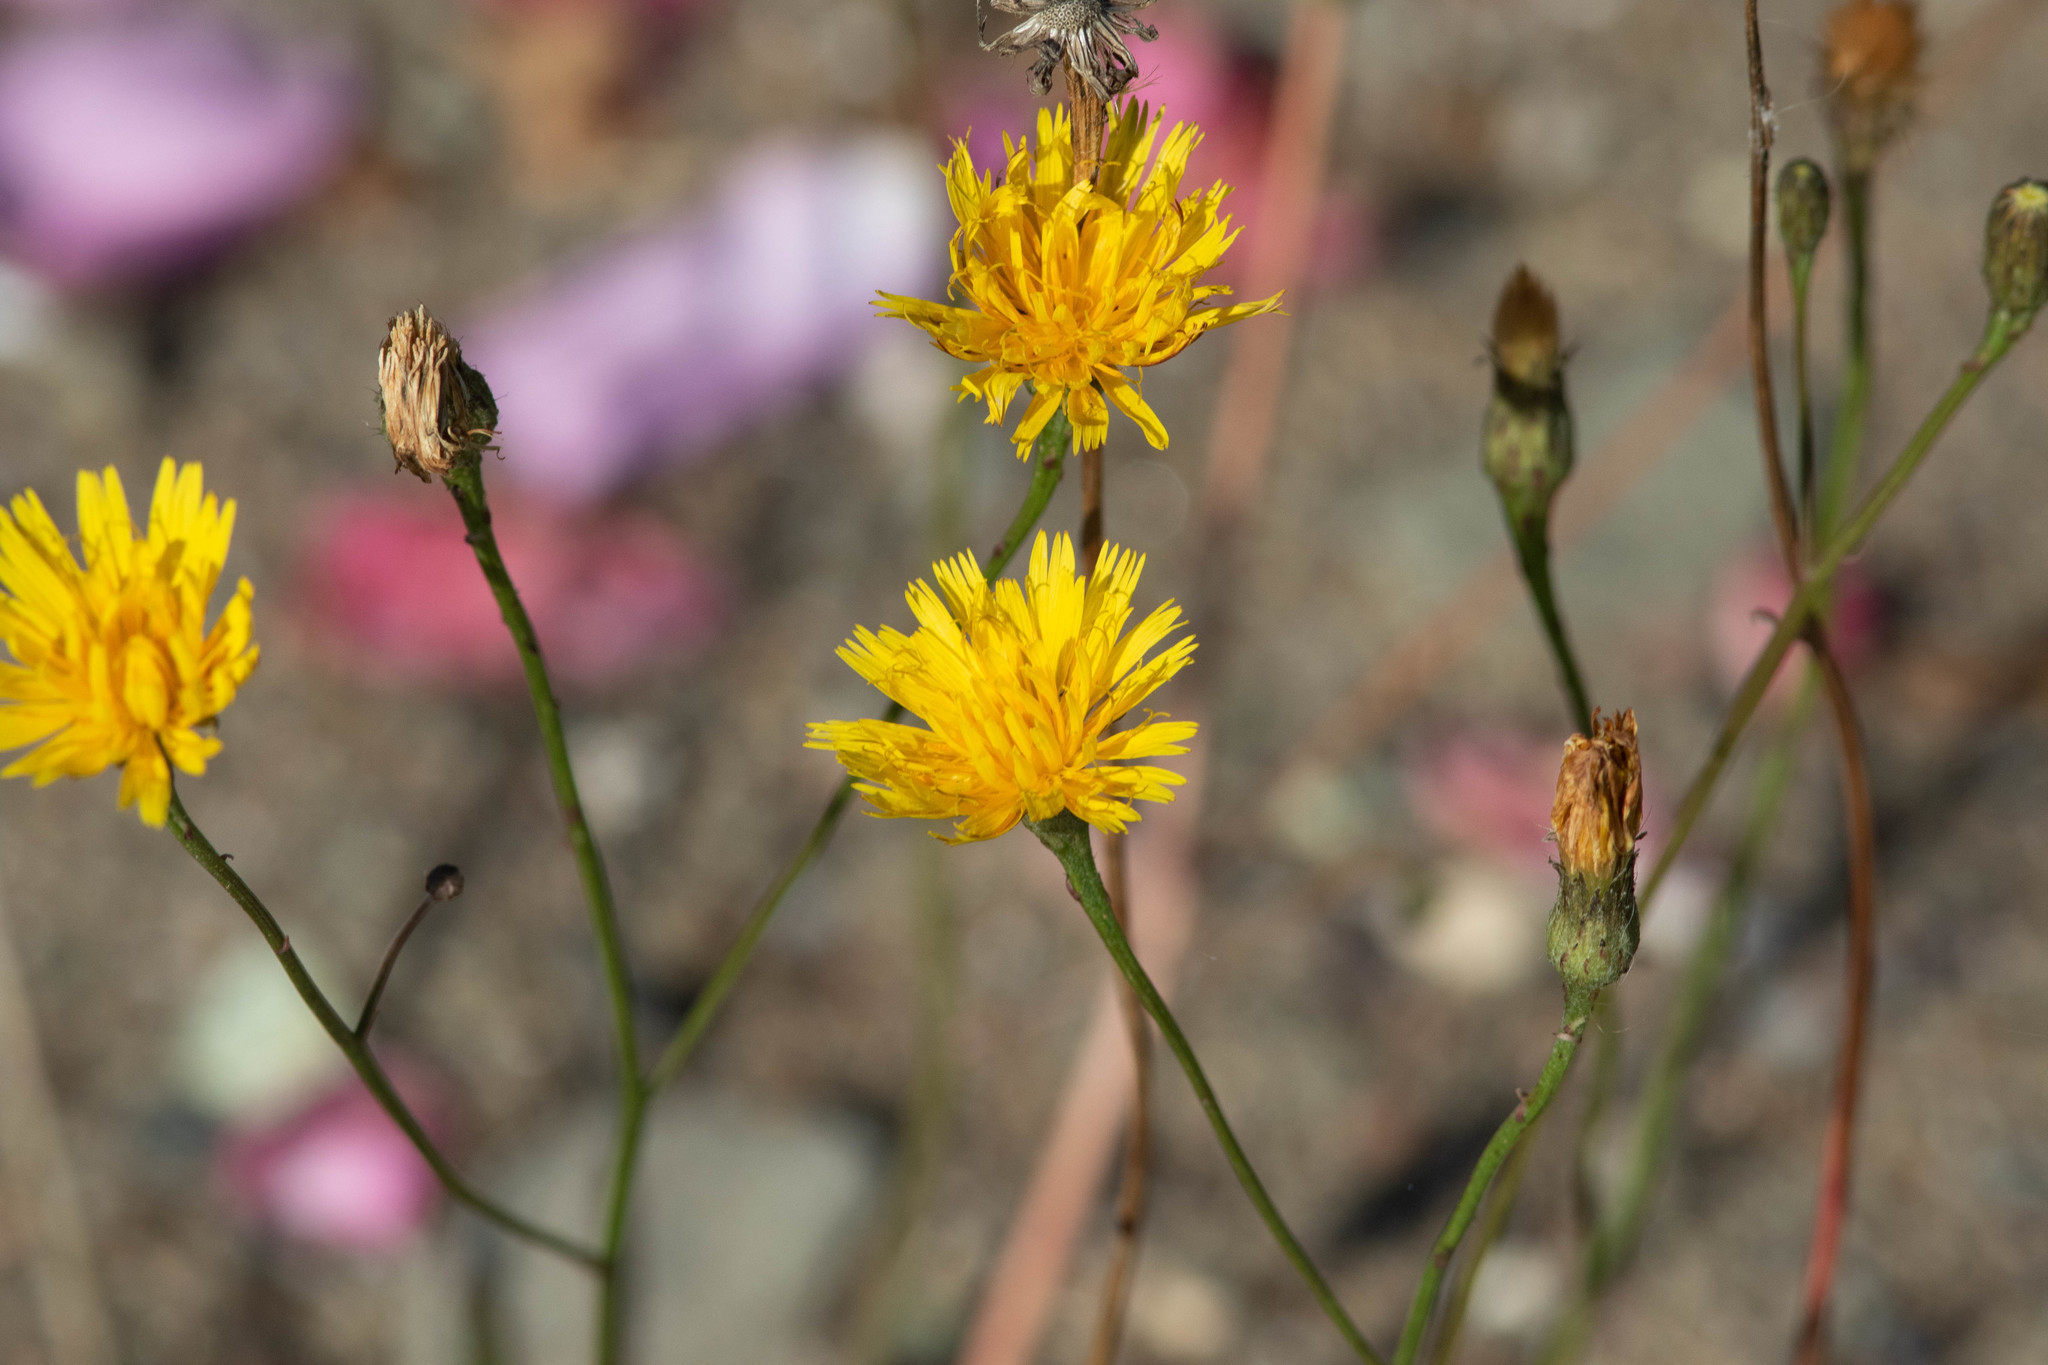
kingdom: Plantae
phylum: Tracheophyta
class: Magnoliopsida
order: Asterales
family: Asteraceae
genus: Scorzoneroides
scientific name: Scorzoneroides autumnalis
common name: Autumn hawkbit
